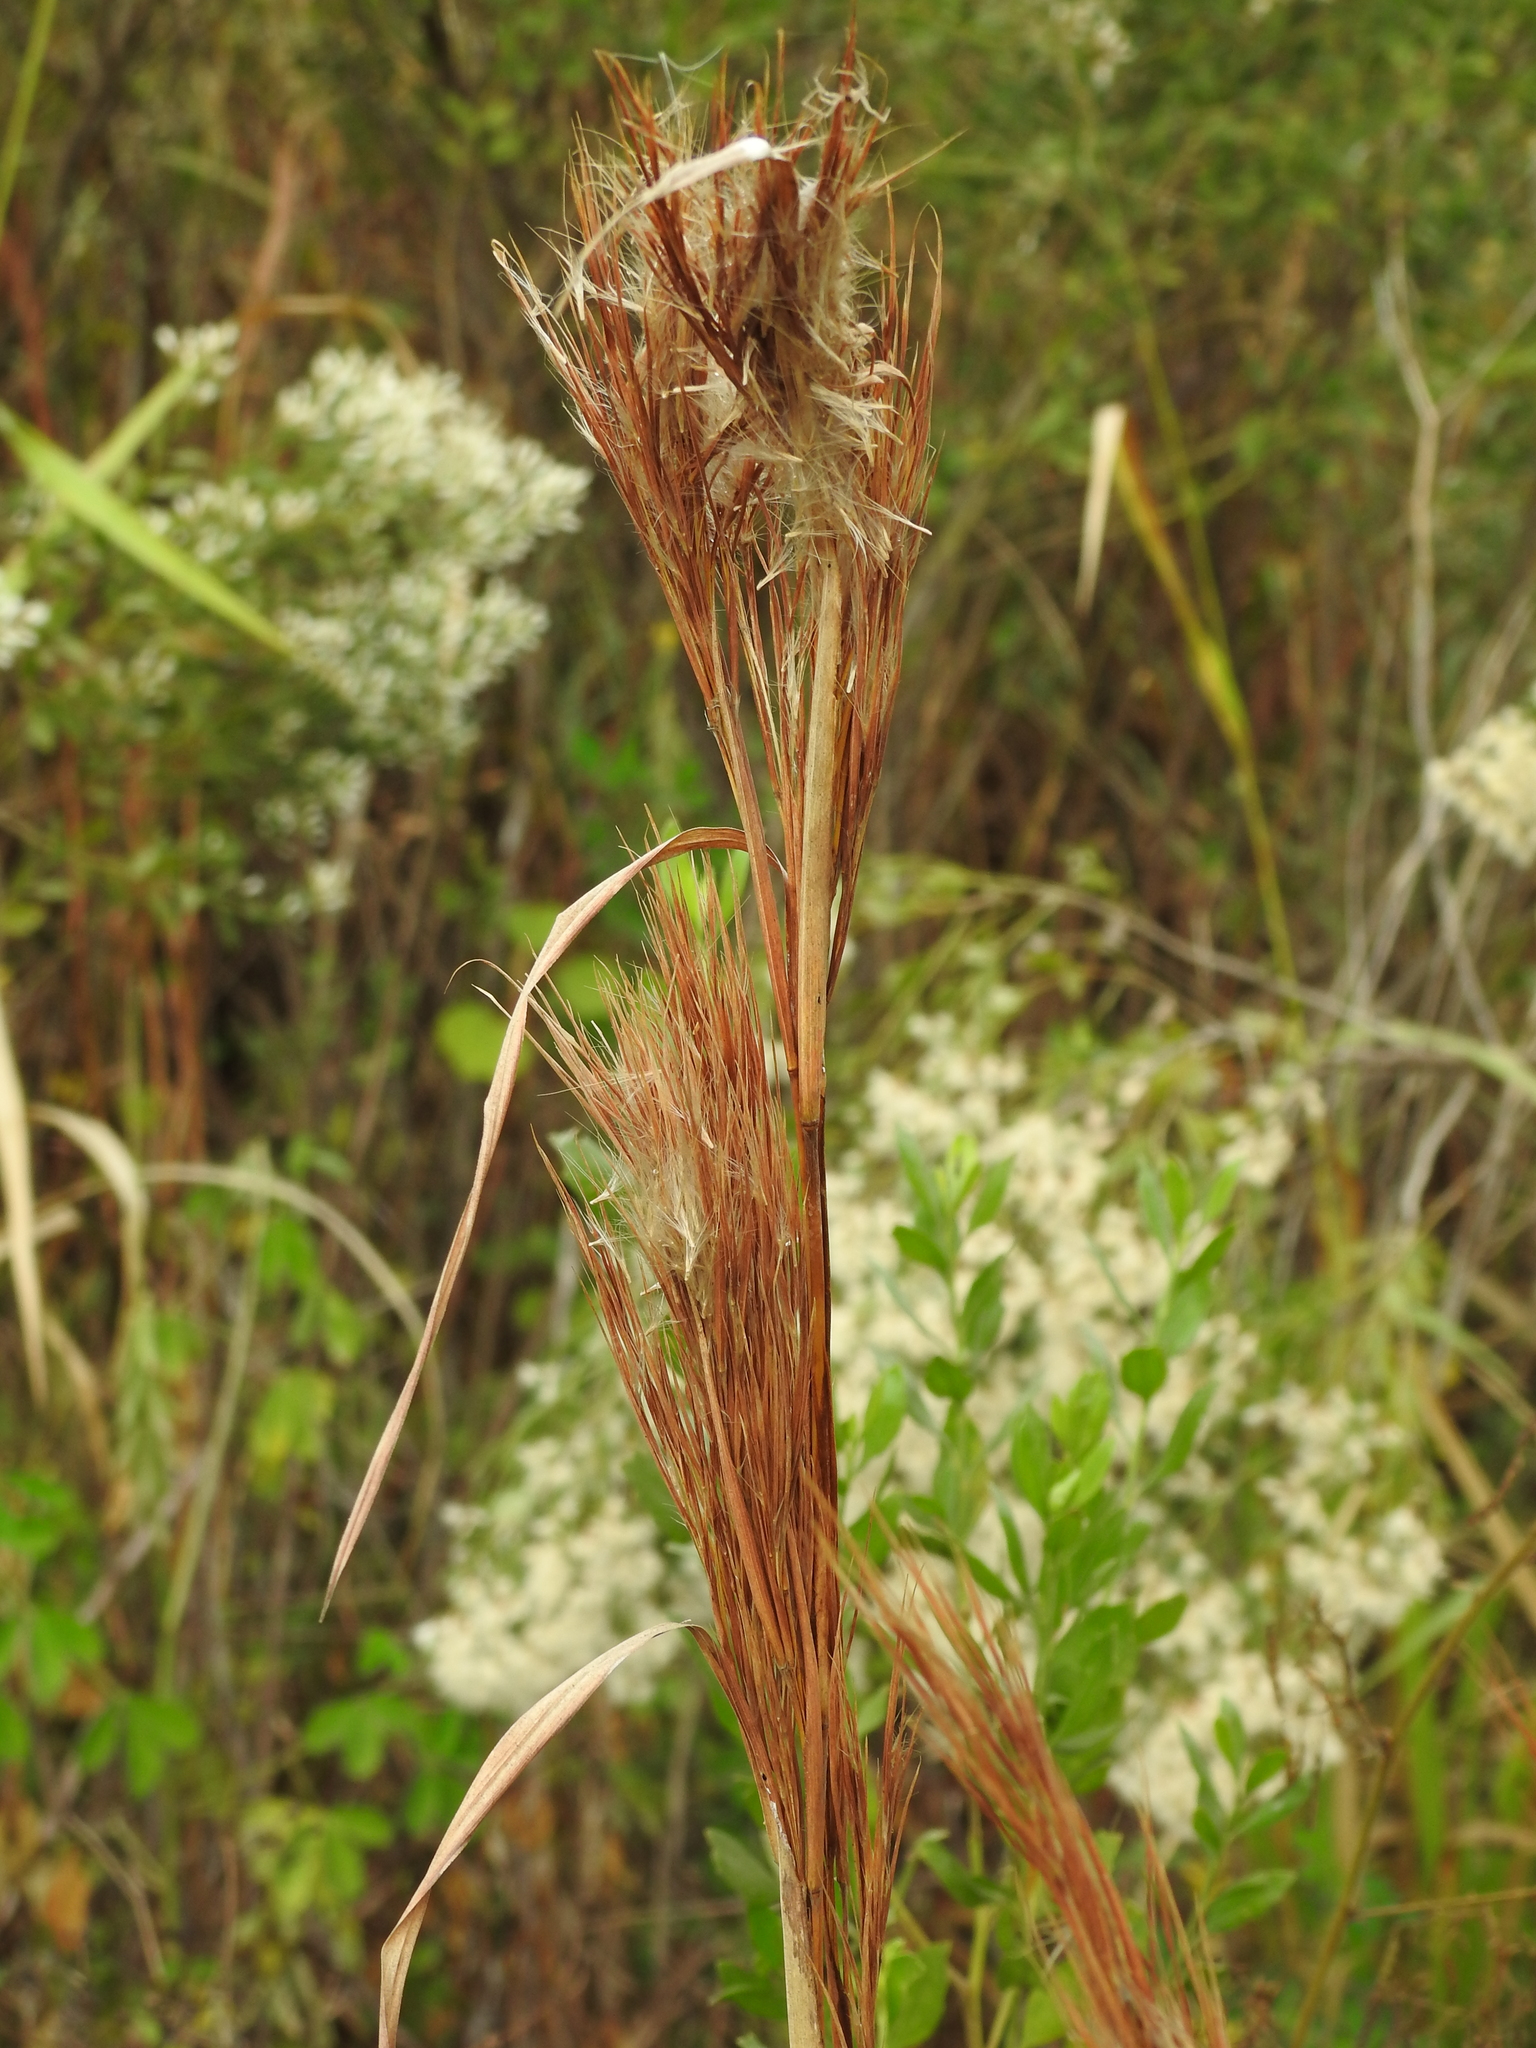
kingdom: Plantae
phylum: Tracheophyta
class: Liliopsida
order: Poales
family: Poaceae
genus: Andropogon
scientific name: Andropogon tenuispatheus
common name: Bushy bluestem
